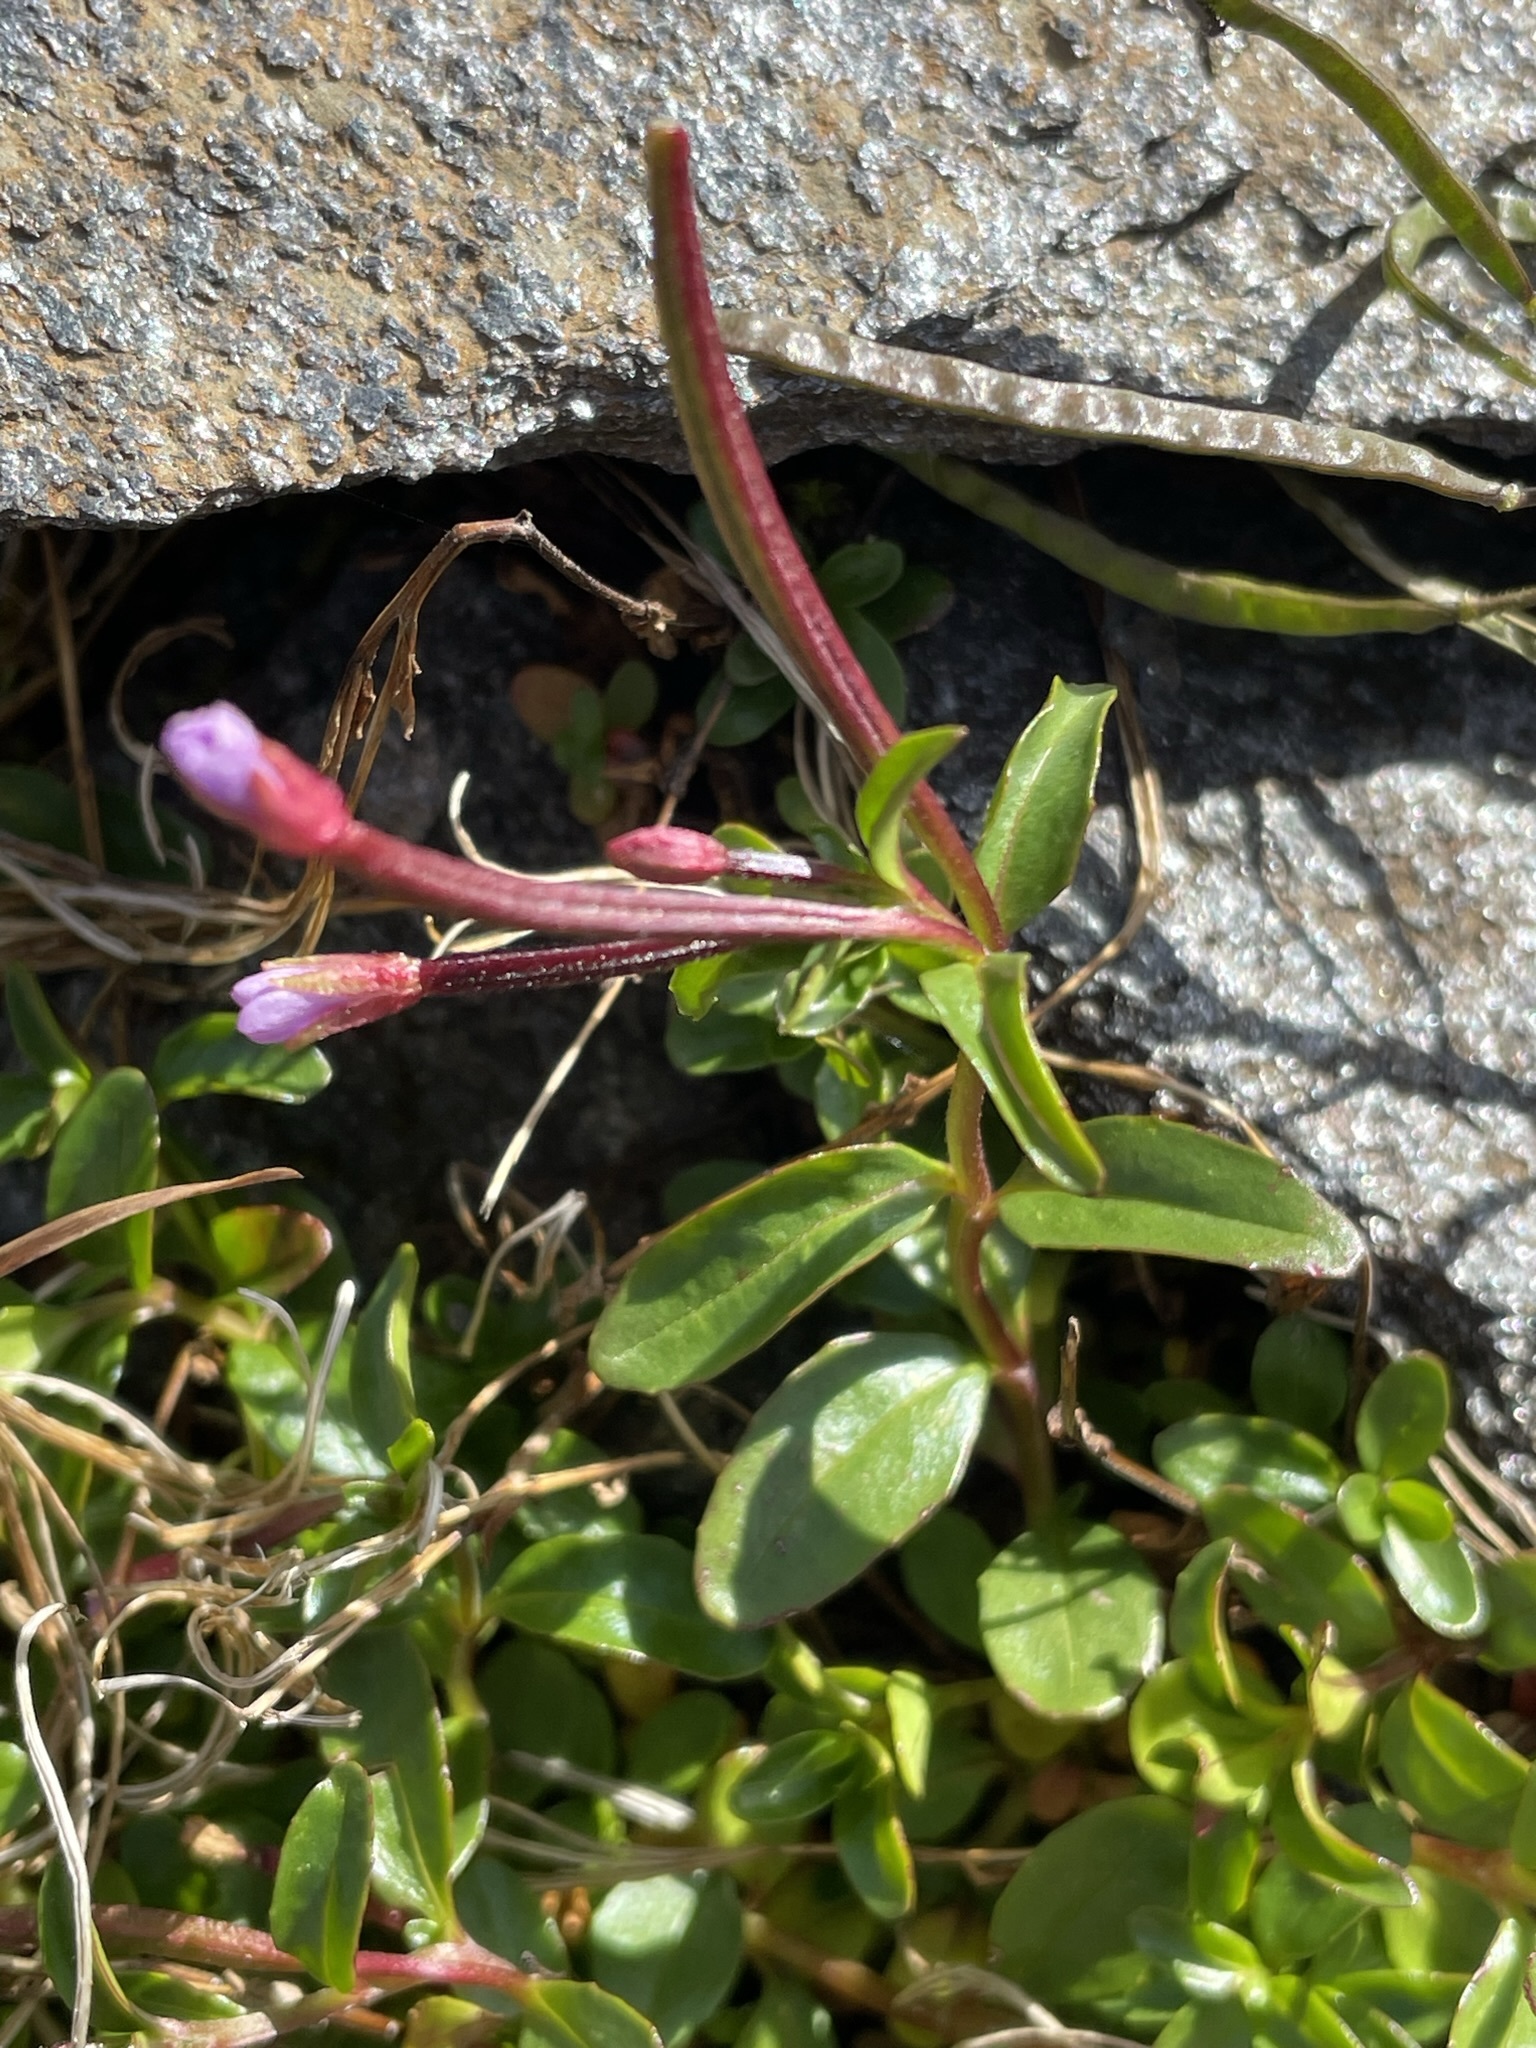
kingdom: Plantae
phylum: Tracheophyta
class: Magnoliopsida
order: Myrtales
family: Onagraceae
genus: Epilobium
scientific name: Epilobium anagallidifolium
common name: Alpine willowherb
